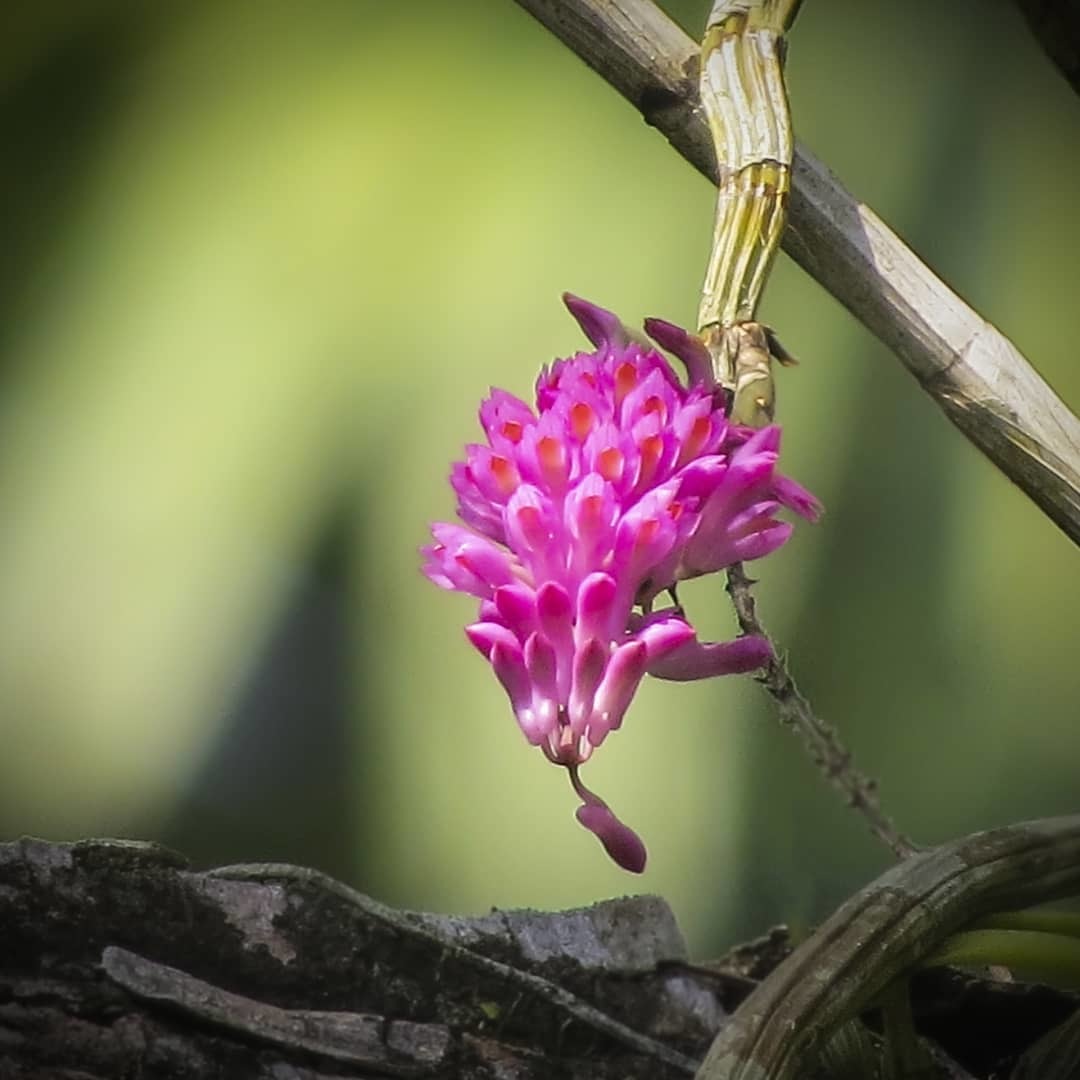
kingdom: Plantae
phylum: Tracheophyta
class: Liliopsida
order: Asparagales
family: Orchidaceae
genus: Dendrobium
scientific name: Dendrobium secundum
